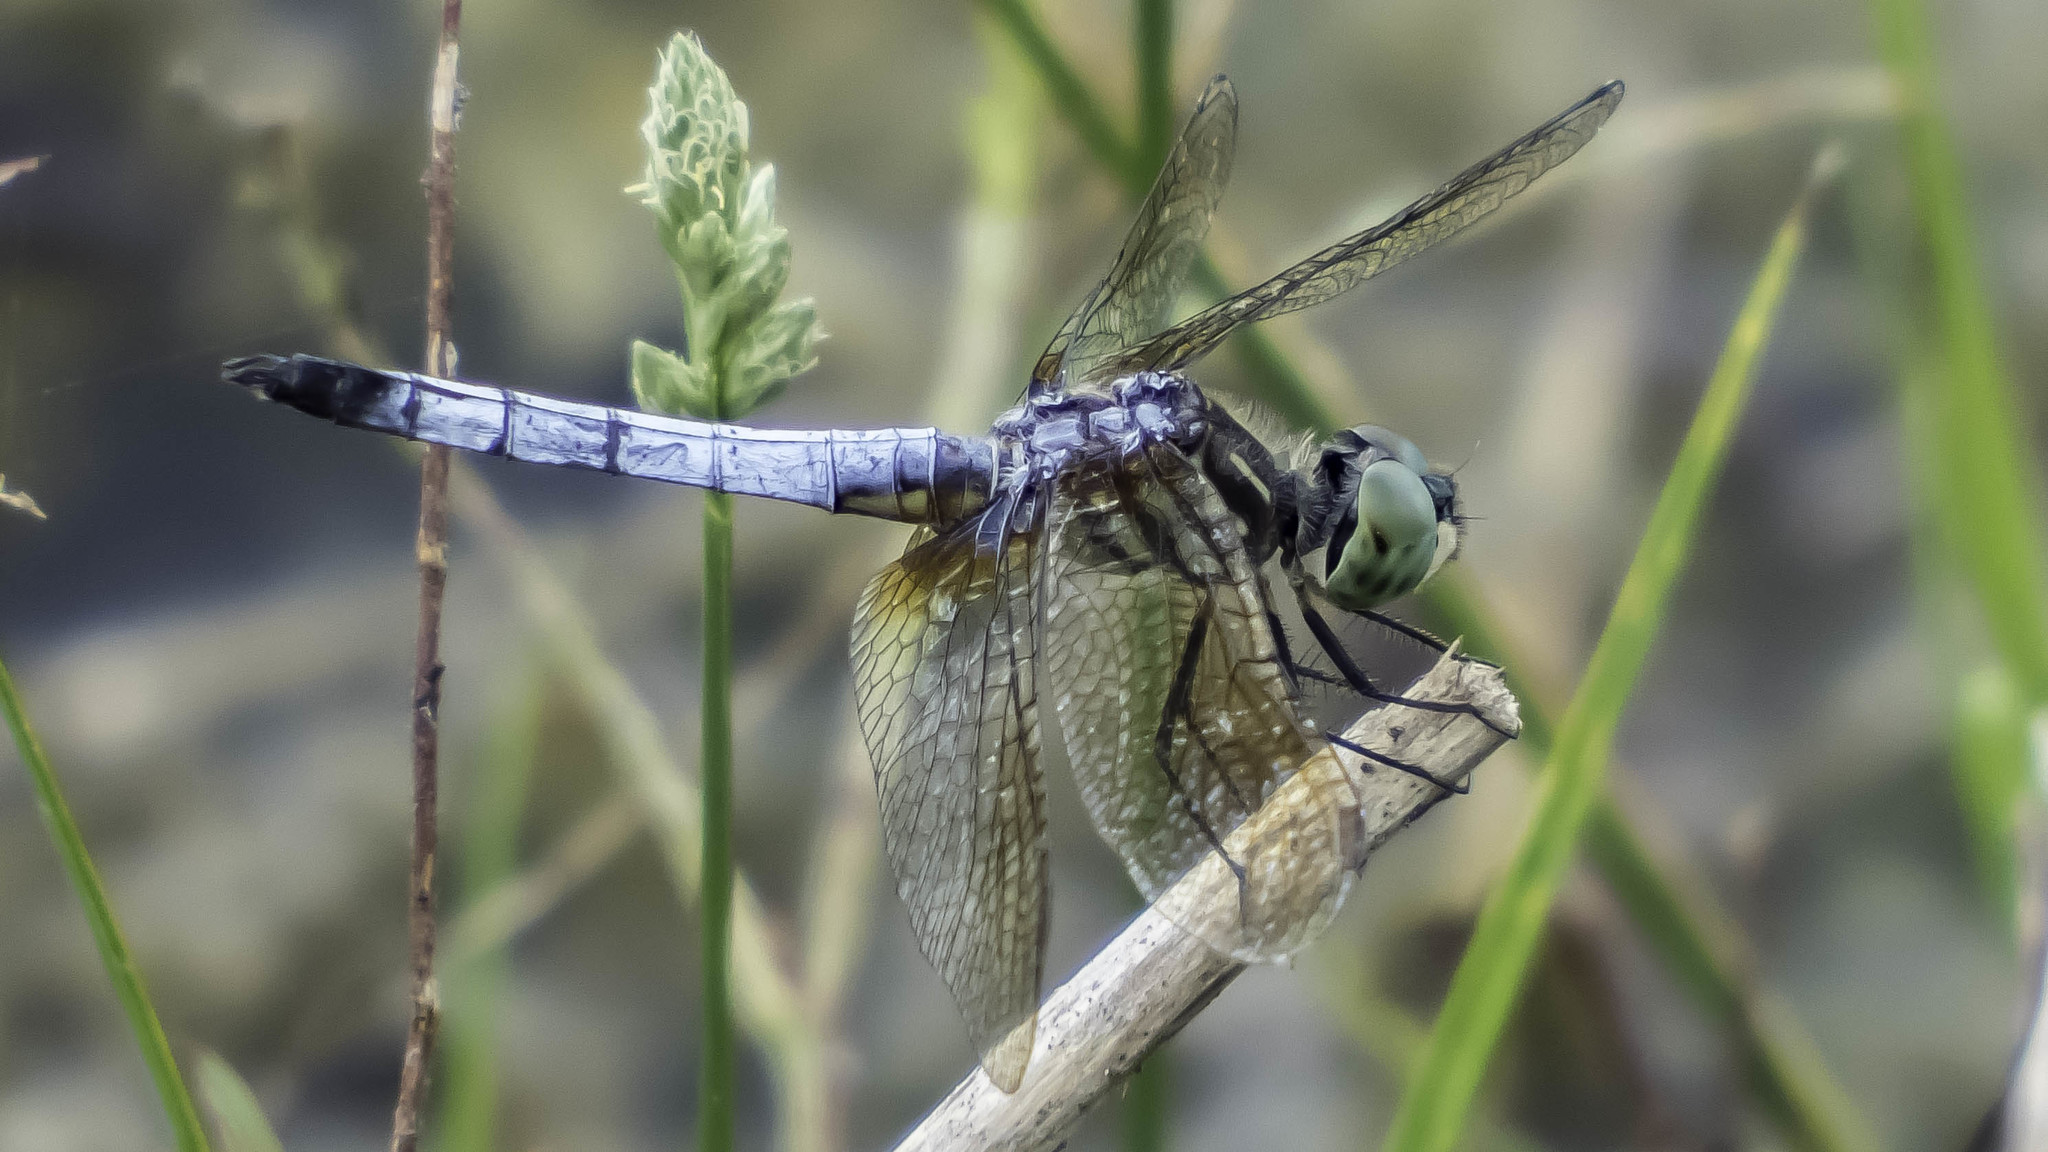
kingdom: Animalia
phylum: Arthropoda
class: Insecta
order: Odonata
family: Libellulidae
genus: Pachydiplax
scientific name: Pachydiplax longipennis
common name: Blue dasher
